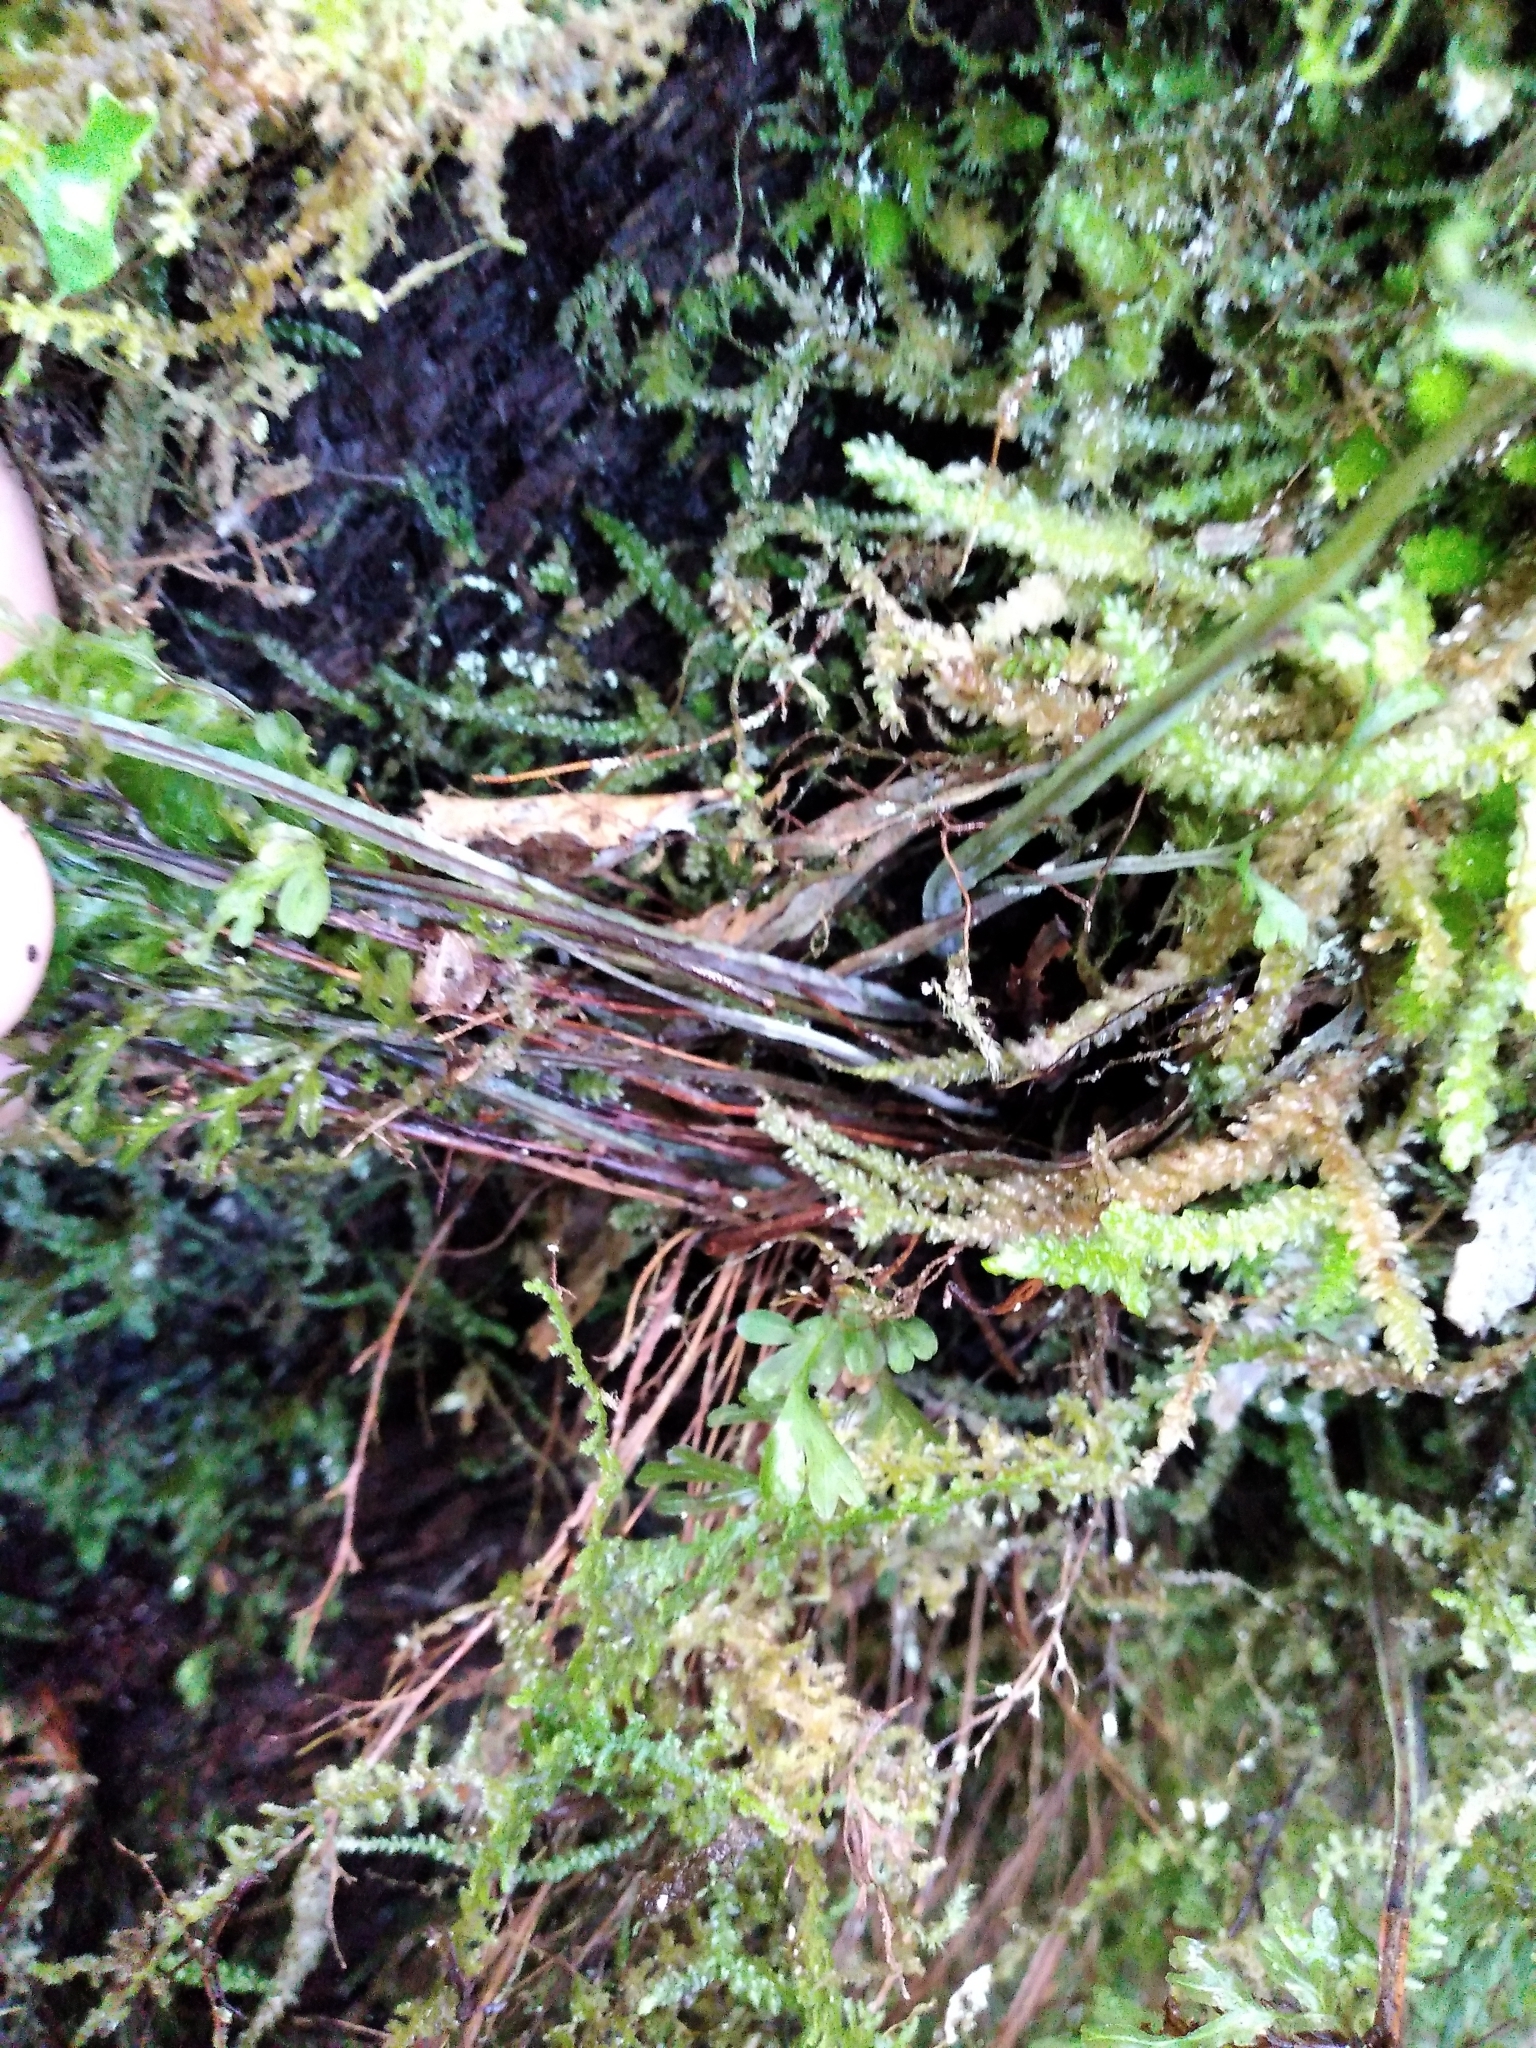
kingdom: Plantae
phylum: Tracheophyta
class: Polypodiopsida
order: Hymenophyllales
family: Hymenophyllaceae
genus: Hymenophyllum
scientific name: Hymenophyllum pulcherrimum
